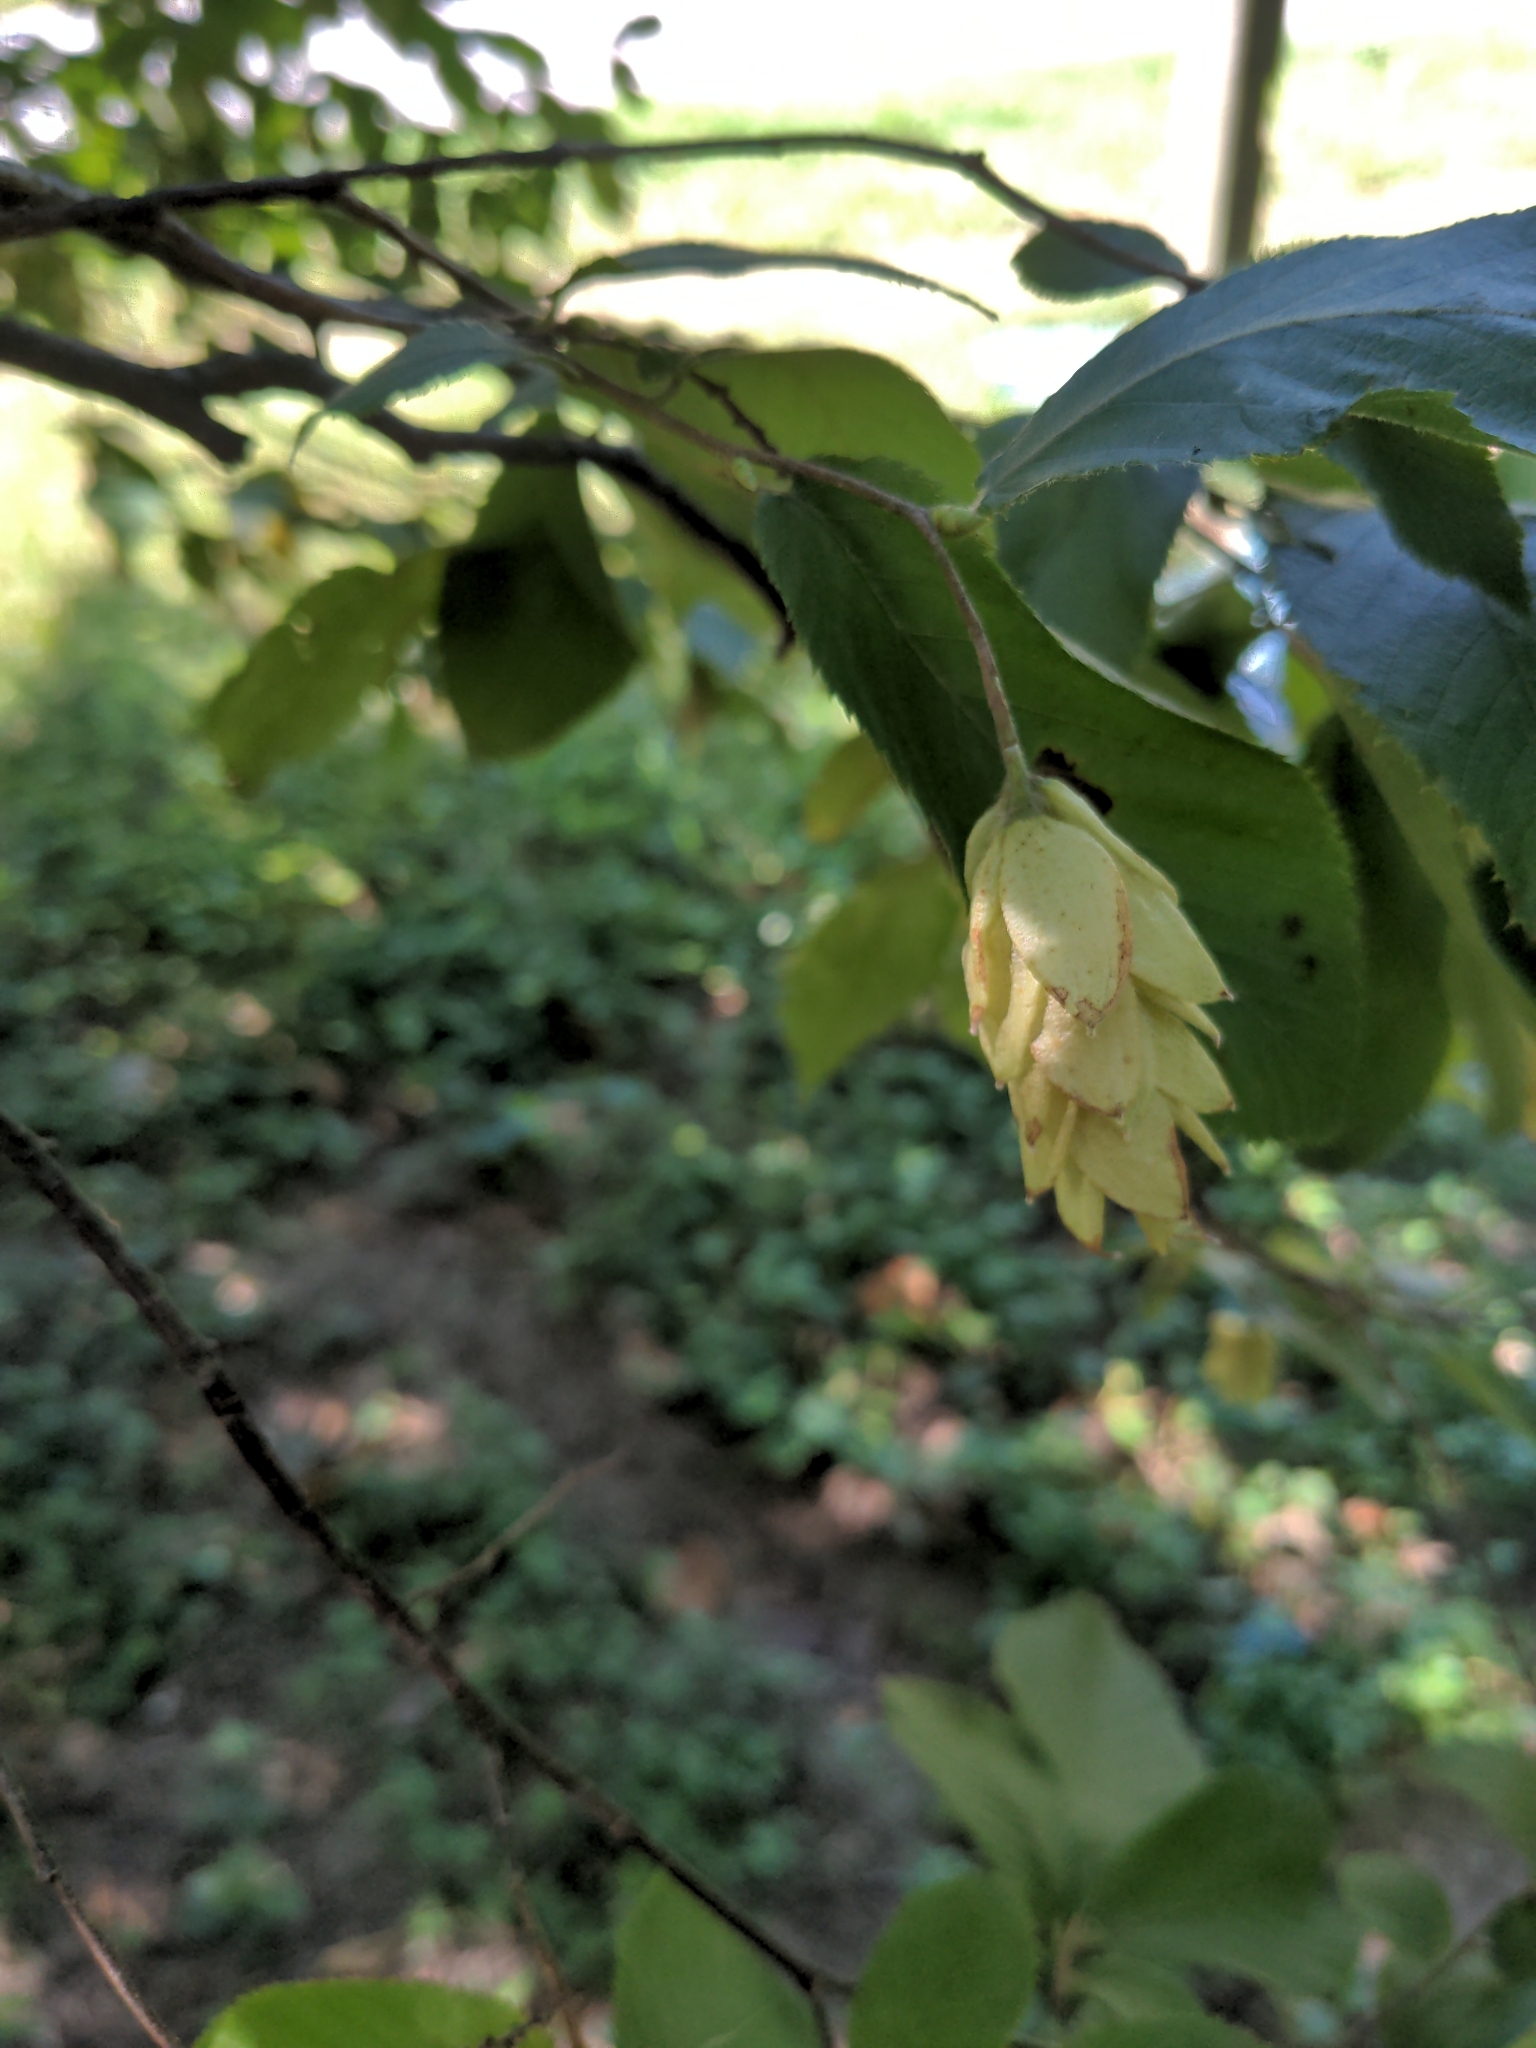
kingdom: Plantae
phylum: Tracheophyta
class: Magnoliopsida
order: Fagales
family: Betulaceae
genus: Ostrya
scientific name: Ostrya virginiana
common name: Ironwood
